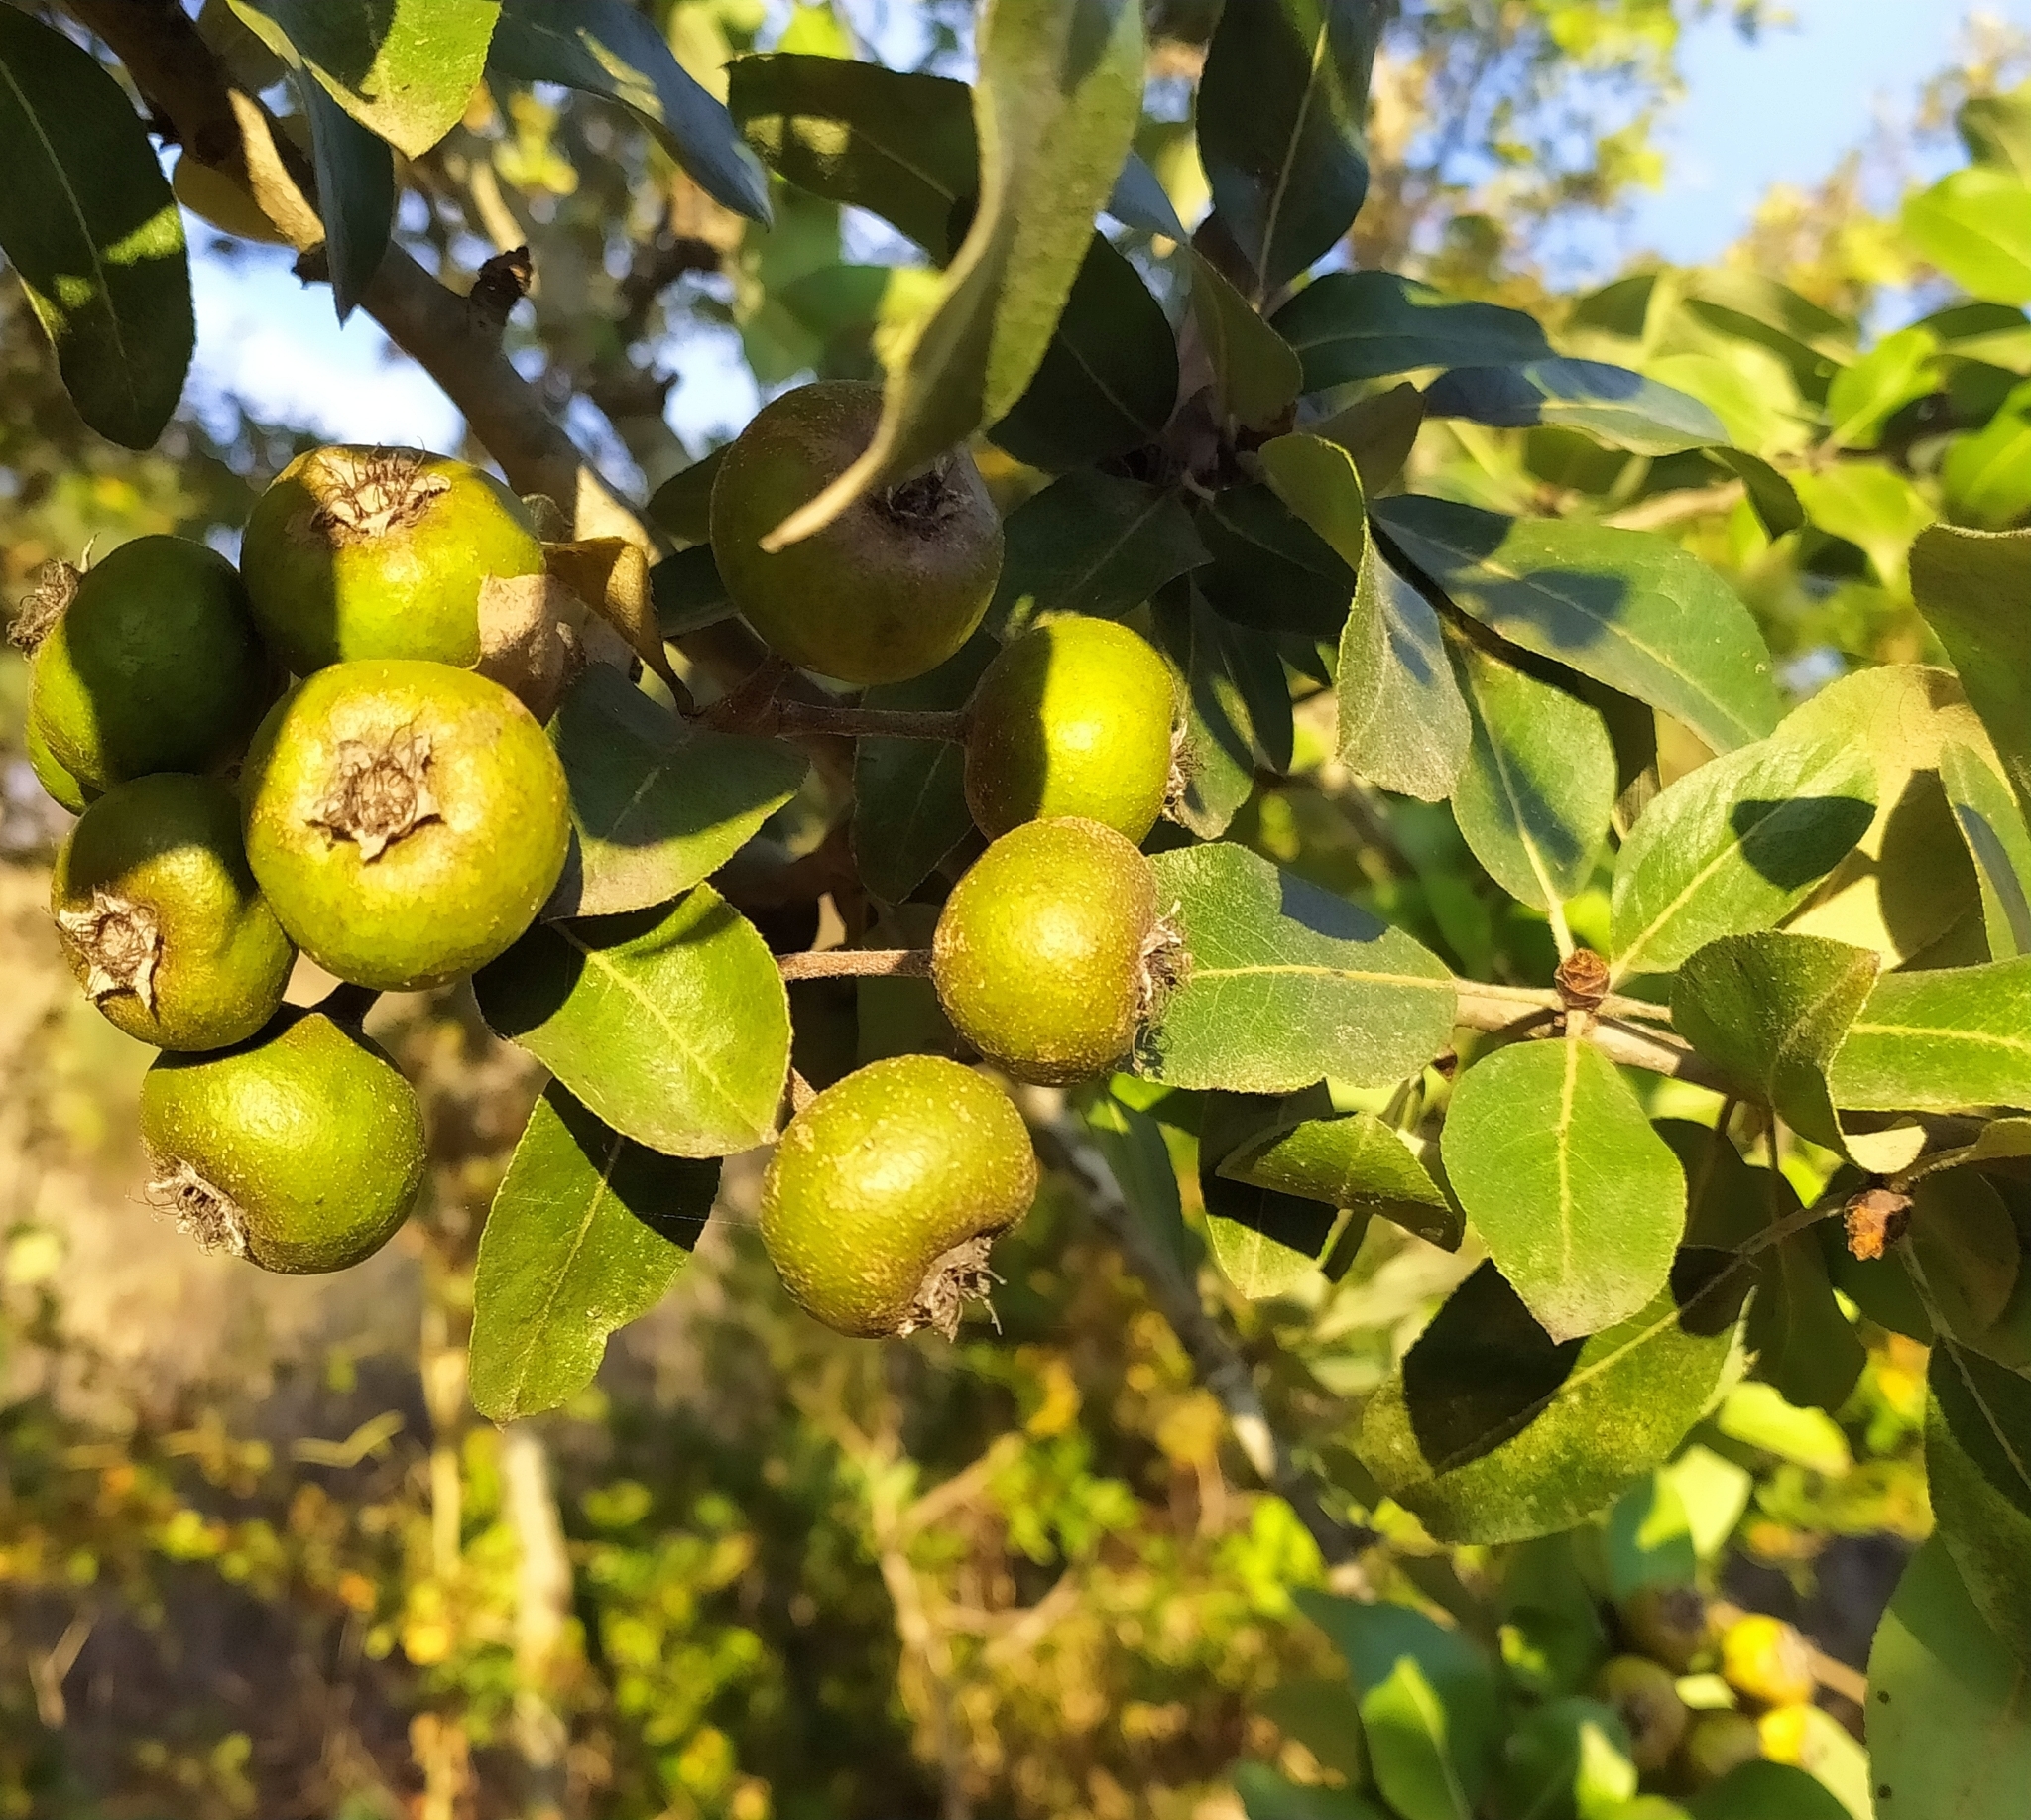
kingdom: Plantae
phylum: Tracheophyta
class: Magnoliopsida
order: Rosales
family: Rosaceae
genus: Pyrus
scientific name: Pyrus spinosa
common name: Almond-leaf pear
